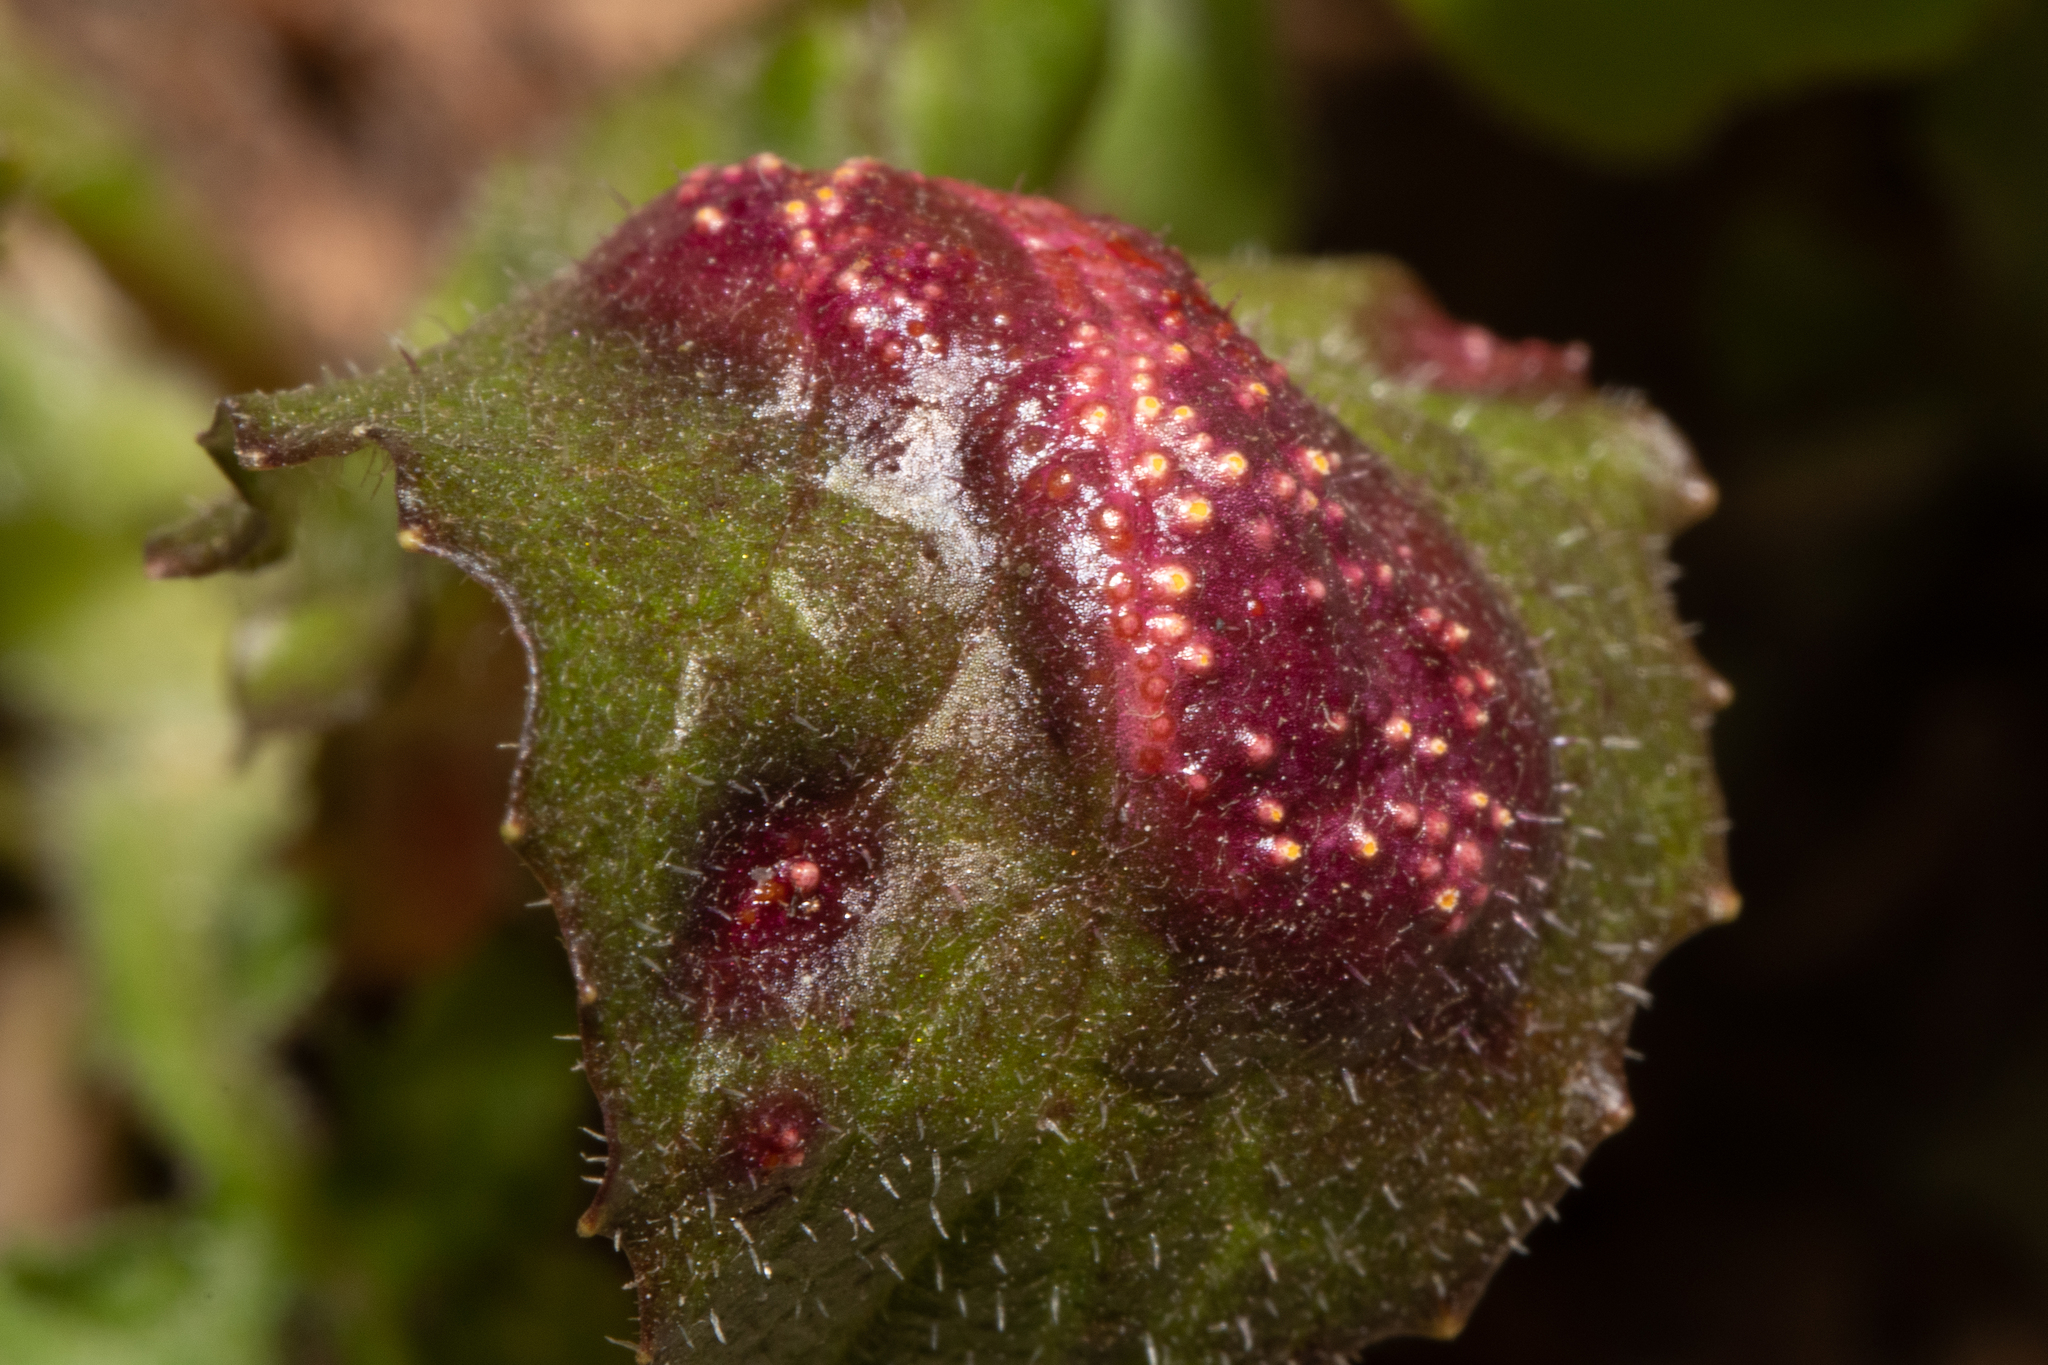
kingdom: Fungi
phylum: Basidiomycota
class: Pucciniomycetes
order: Pucciniales
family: Pucciniaceae
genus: Puccinia
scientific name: Puccinia lapsanae
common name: Nipplewort rust
